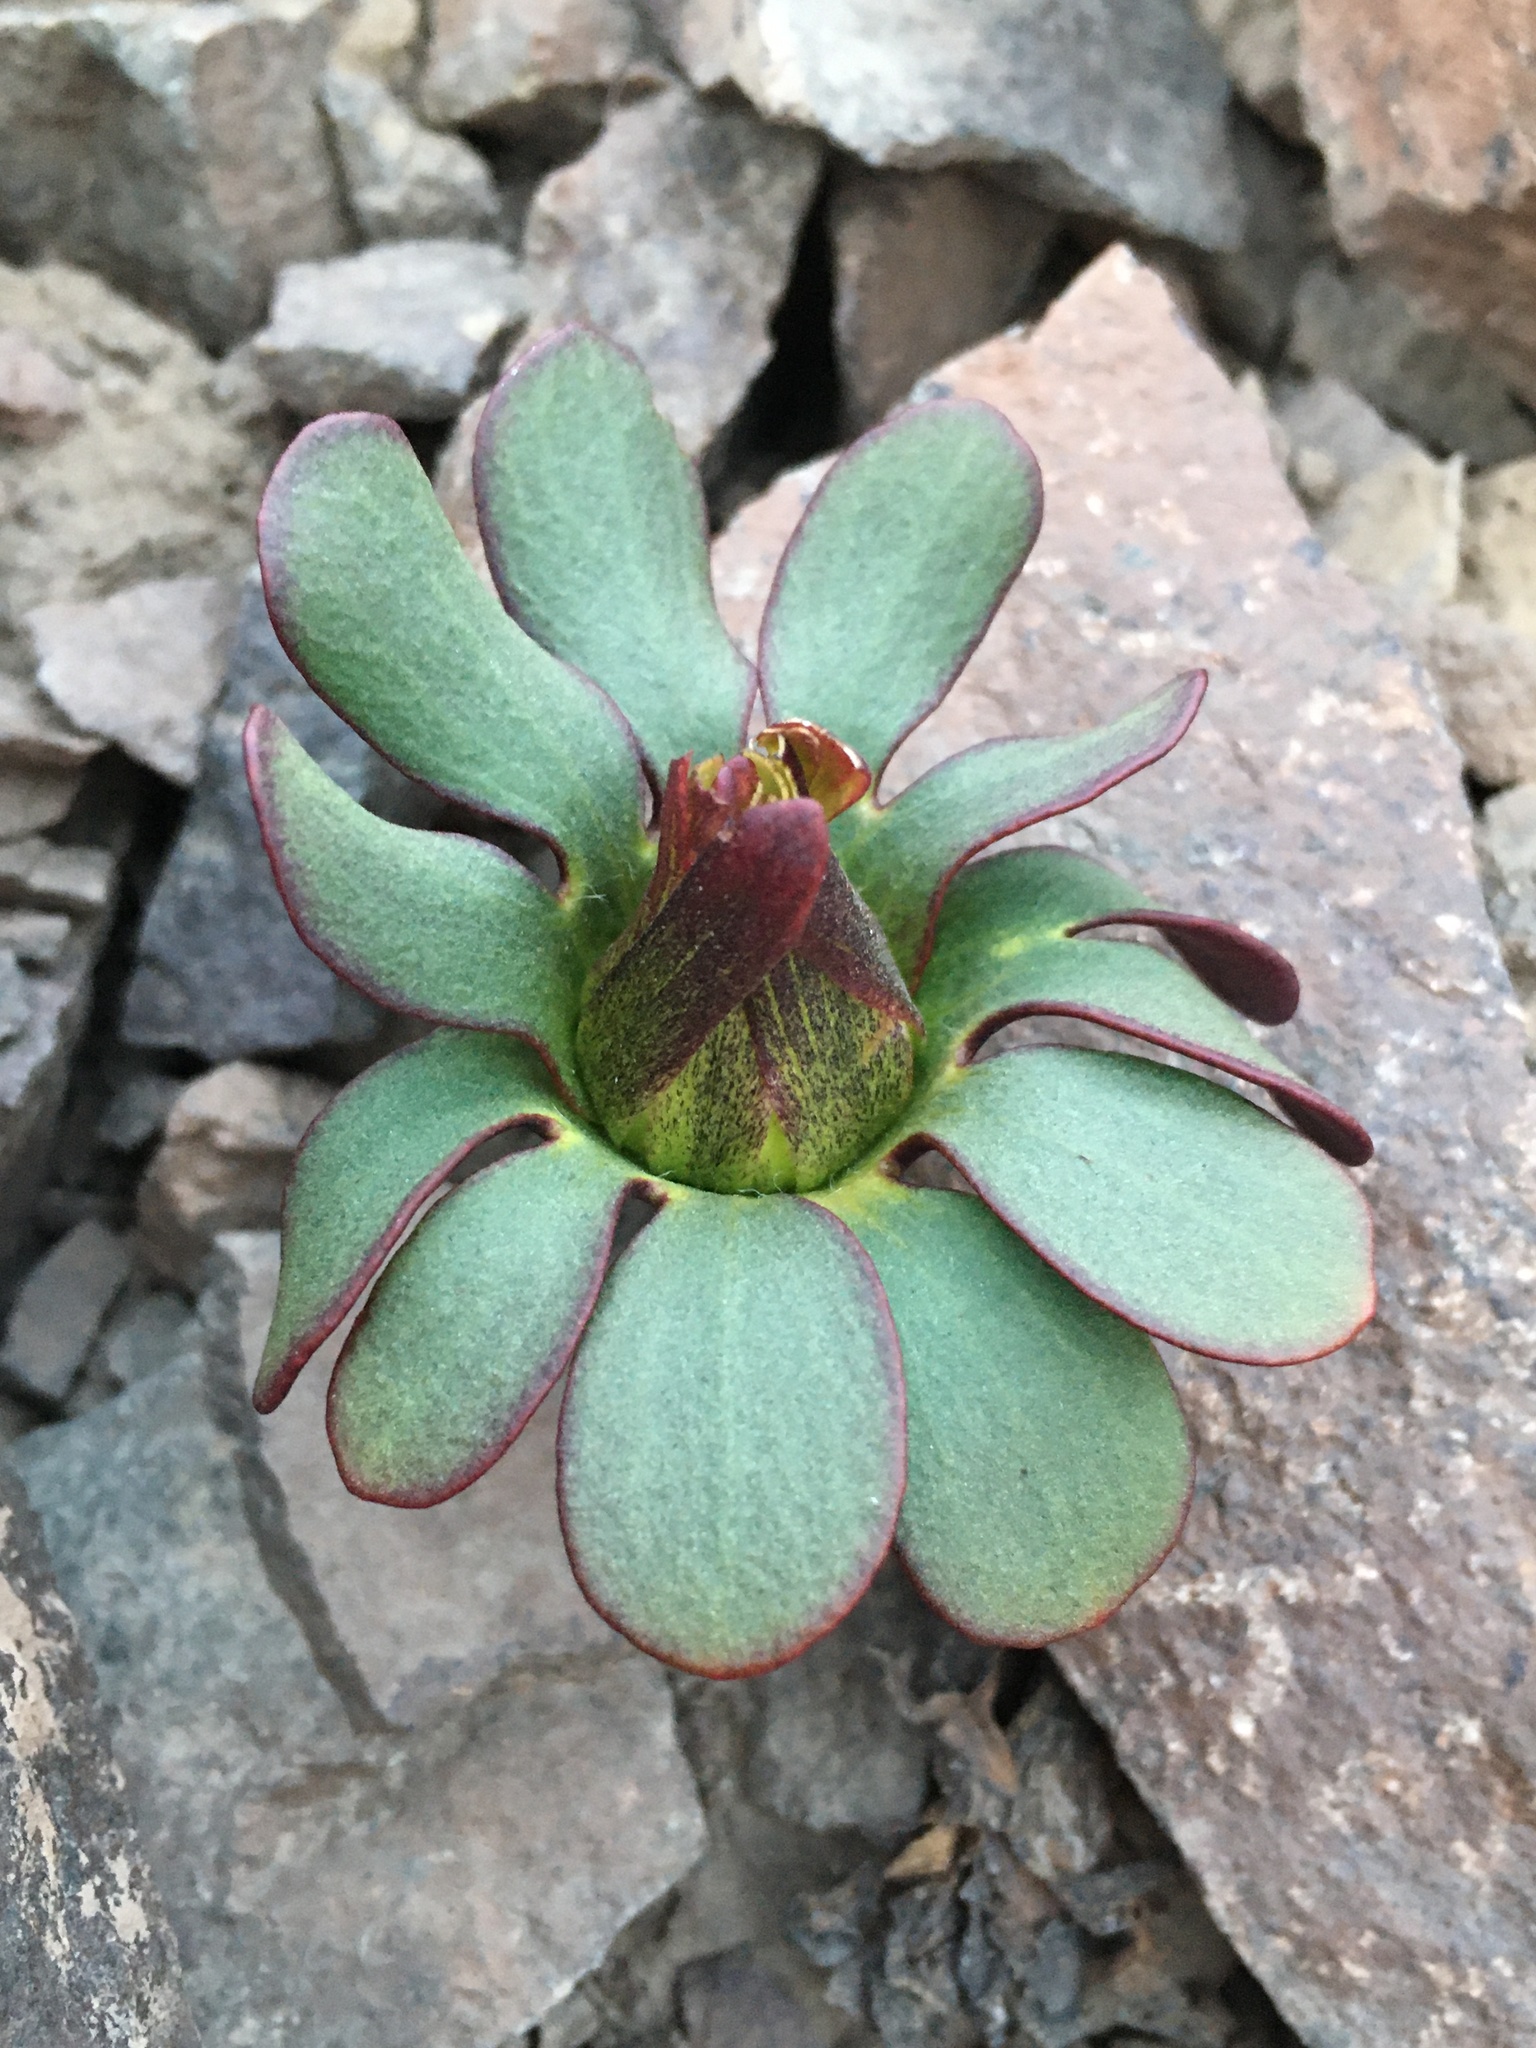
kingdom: Plantae
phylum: Tracheophyta
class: Magnoliopsida
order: Ranunculales
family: Ranunculaceae
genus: Knowltonia
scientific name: Knowltonia chilensis
